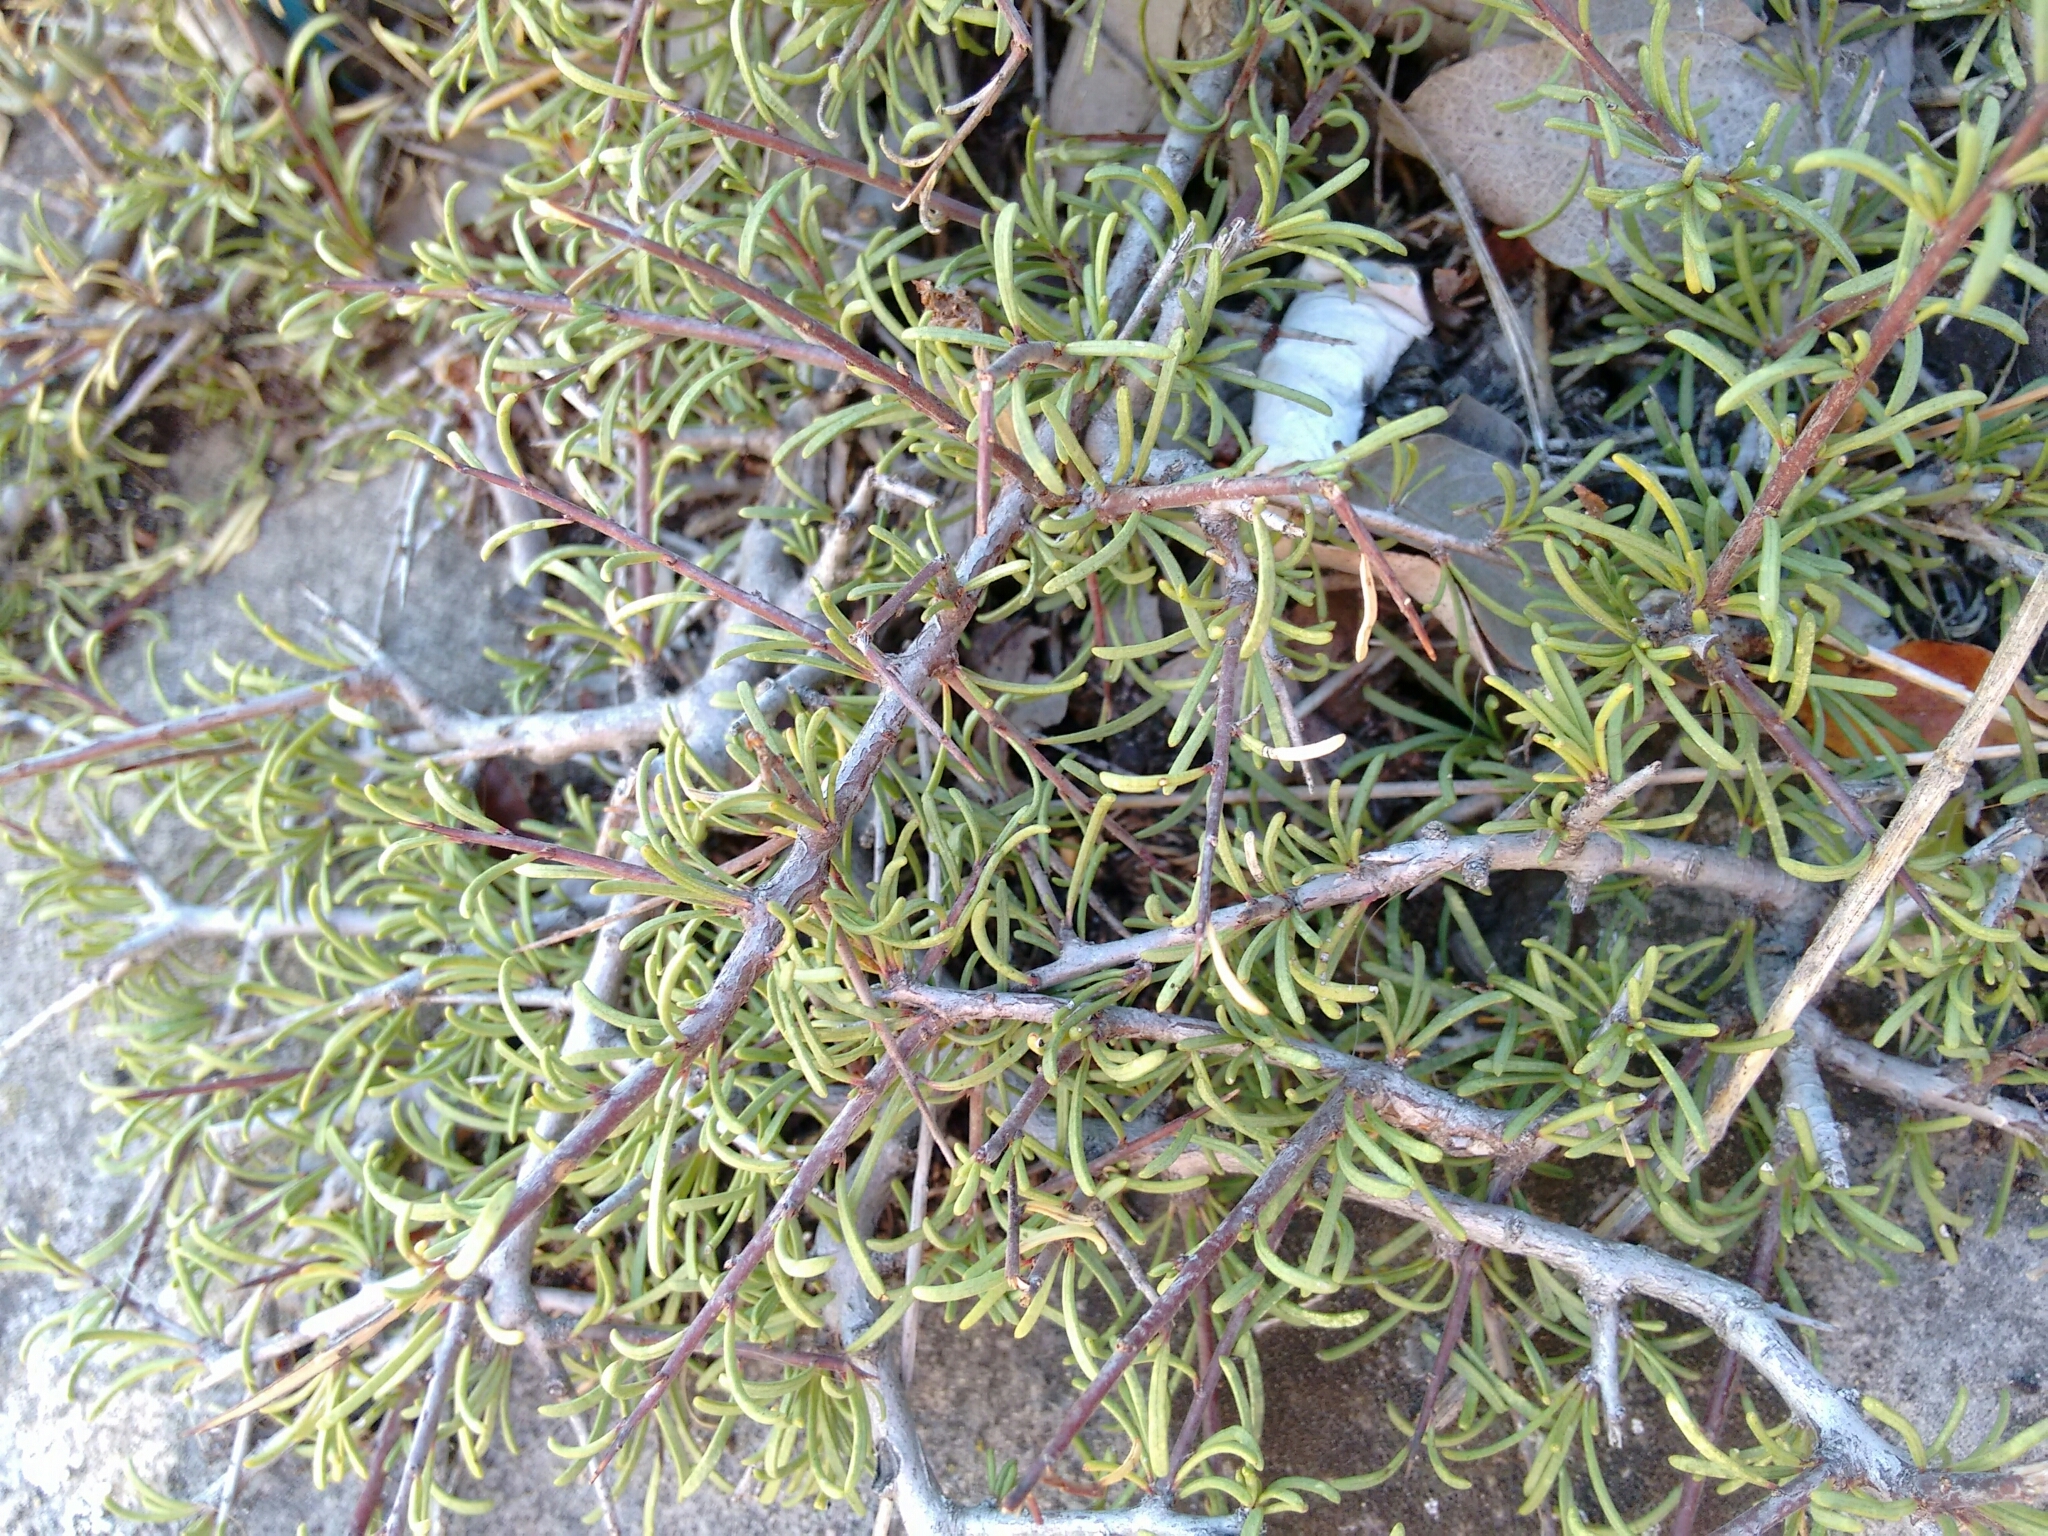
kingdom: Plantae
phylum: Tracheophyta
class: Magnoliopsida
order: Rosales
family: Rhamnaceae
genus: Rhamnus
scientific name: Rhamnus lycioides
